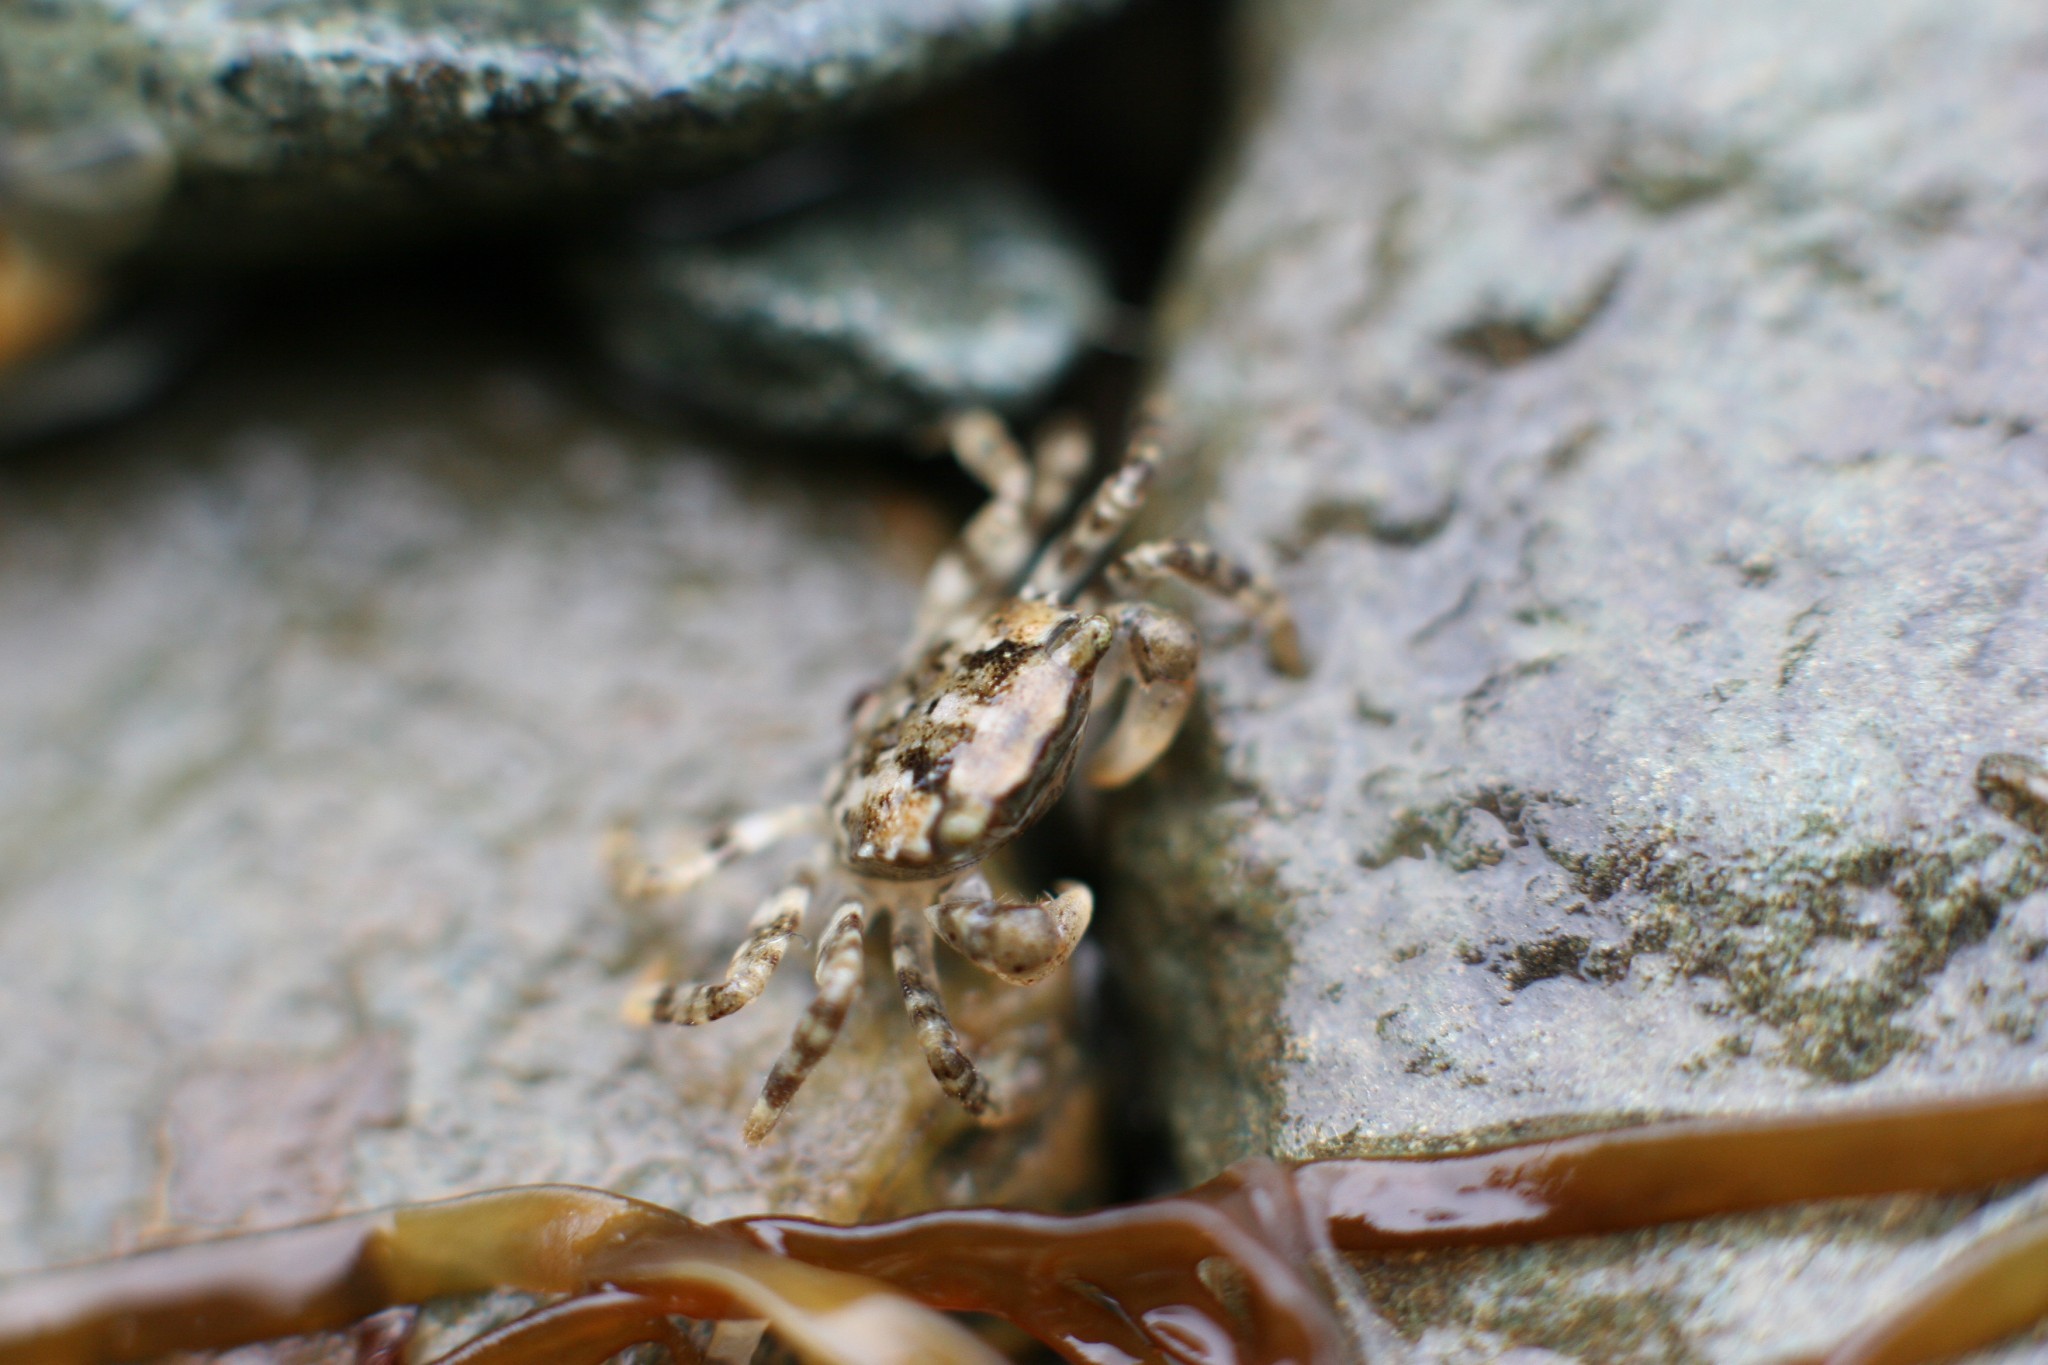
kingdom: Animalia
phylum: Arthropoda
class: Malacostraca
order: Decapoda
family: Varunidae
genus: Hemigrapsus
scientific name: Hemigrapsus sanguineus
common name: Asian shore crab
